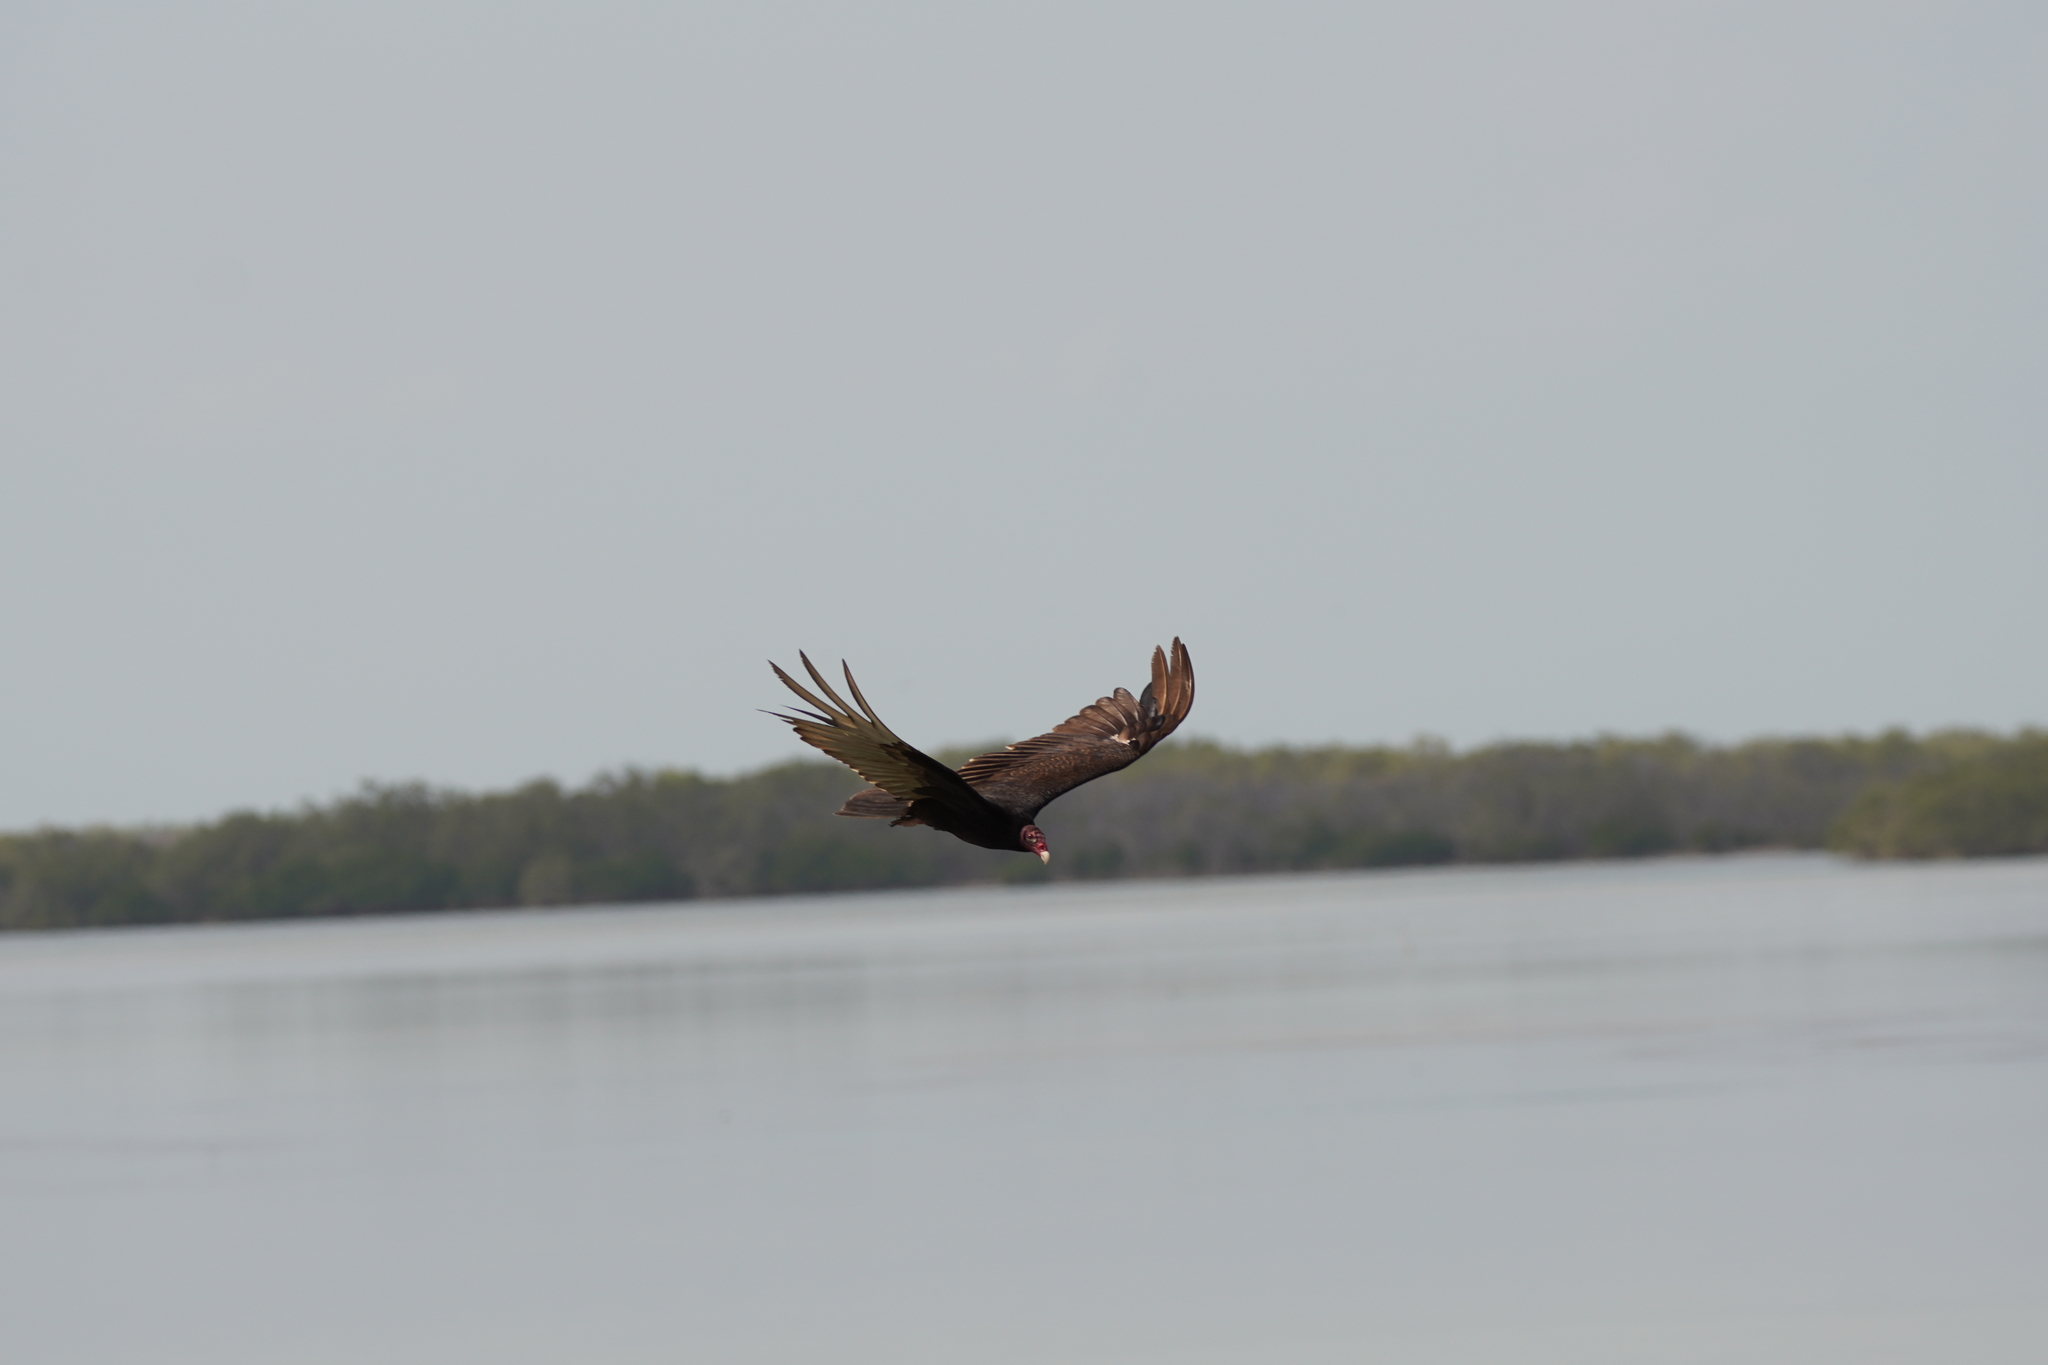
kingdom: Animalia
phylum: Chordata
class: Aves
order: Accipitriformes
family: Cathartidae
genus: Cathartes
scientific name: Cathartes aura
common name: Turkey vulture
